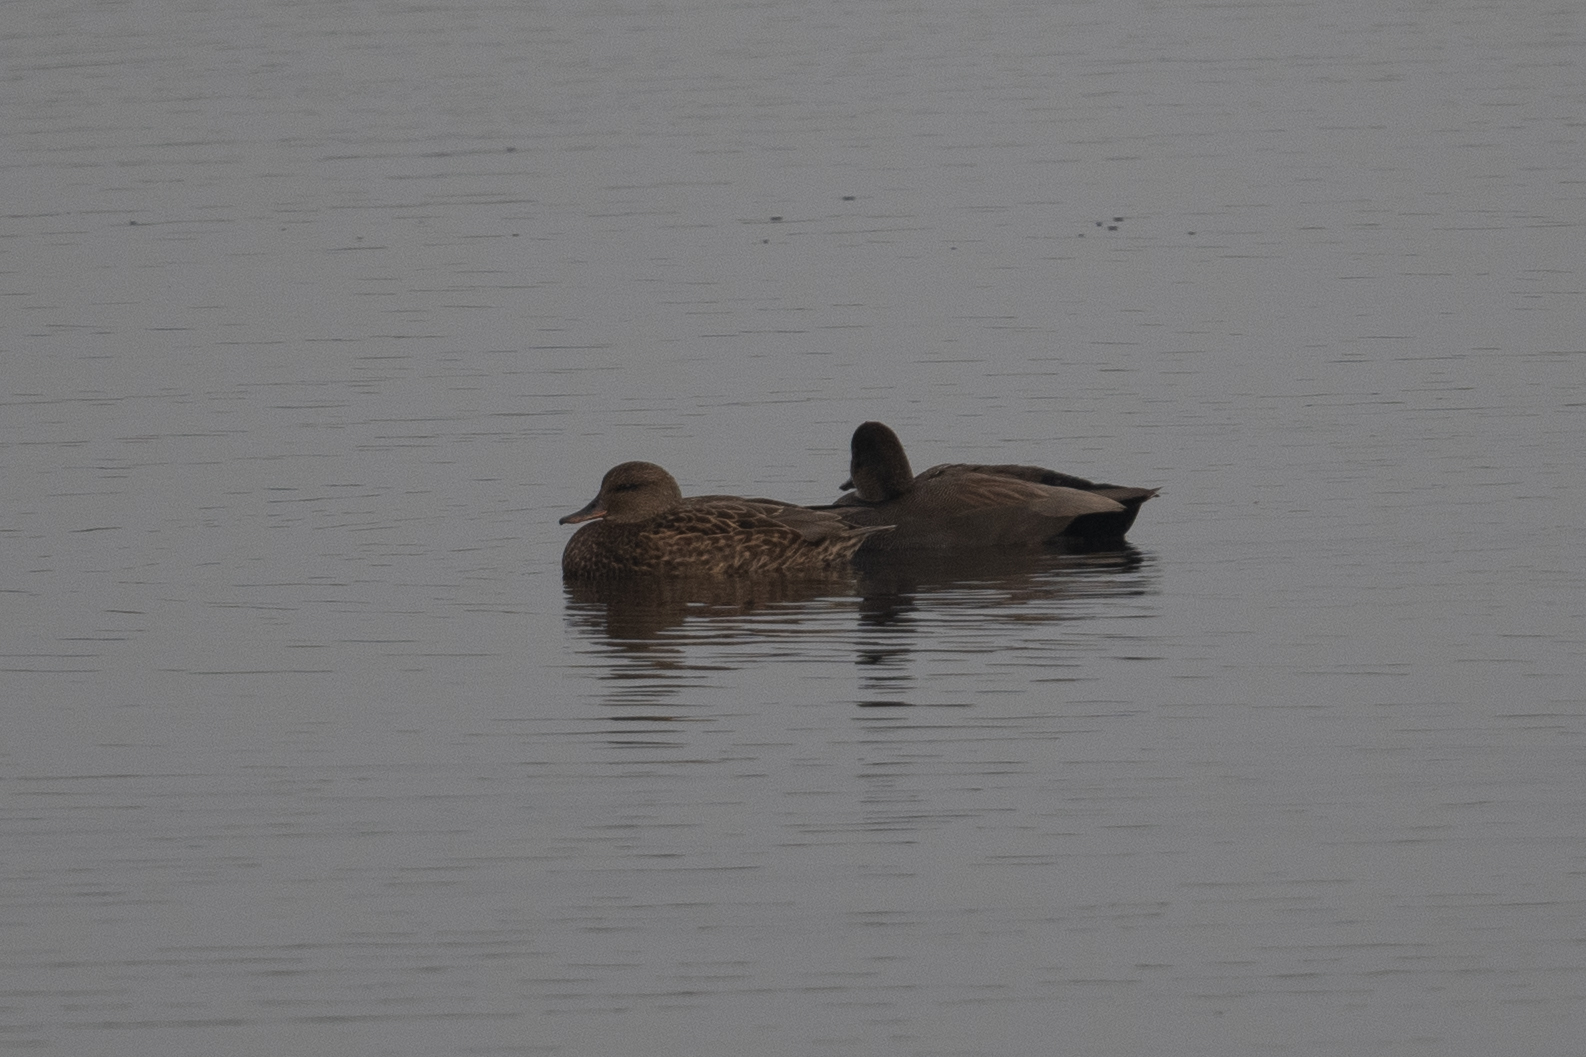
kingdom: Animalia
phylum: Chordata
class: Aves
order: Anseriformes
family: Anatidae
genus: Mareca
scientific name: Mareca strepera
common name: Gadwall
